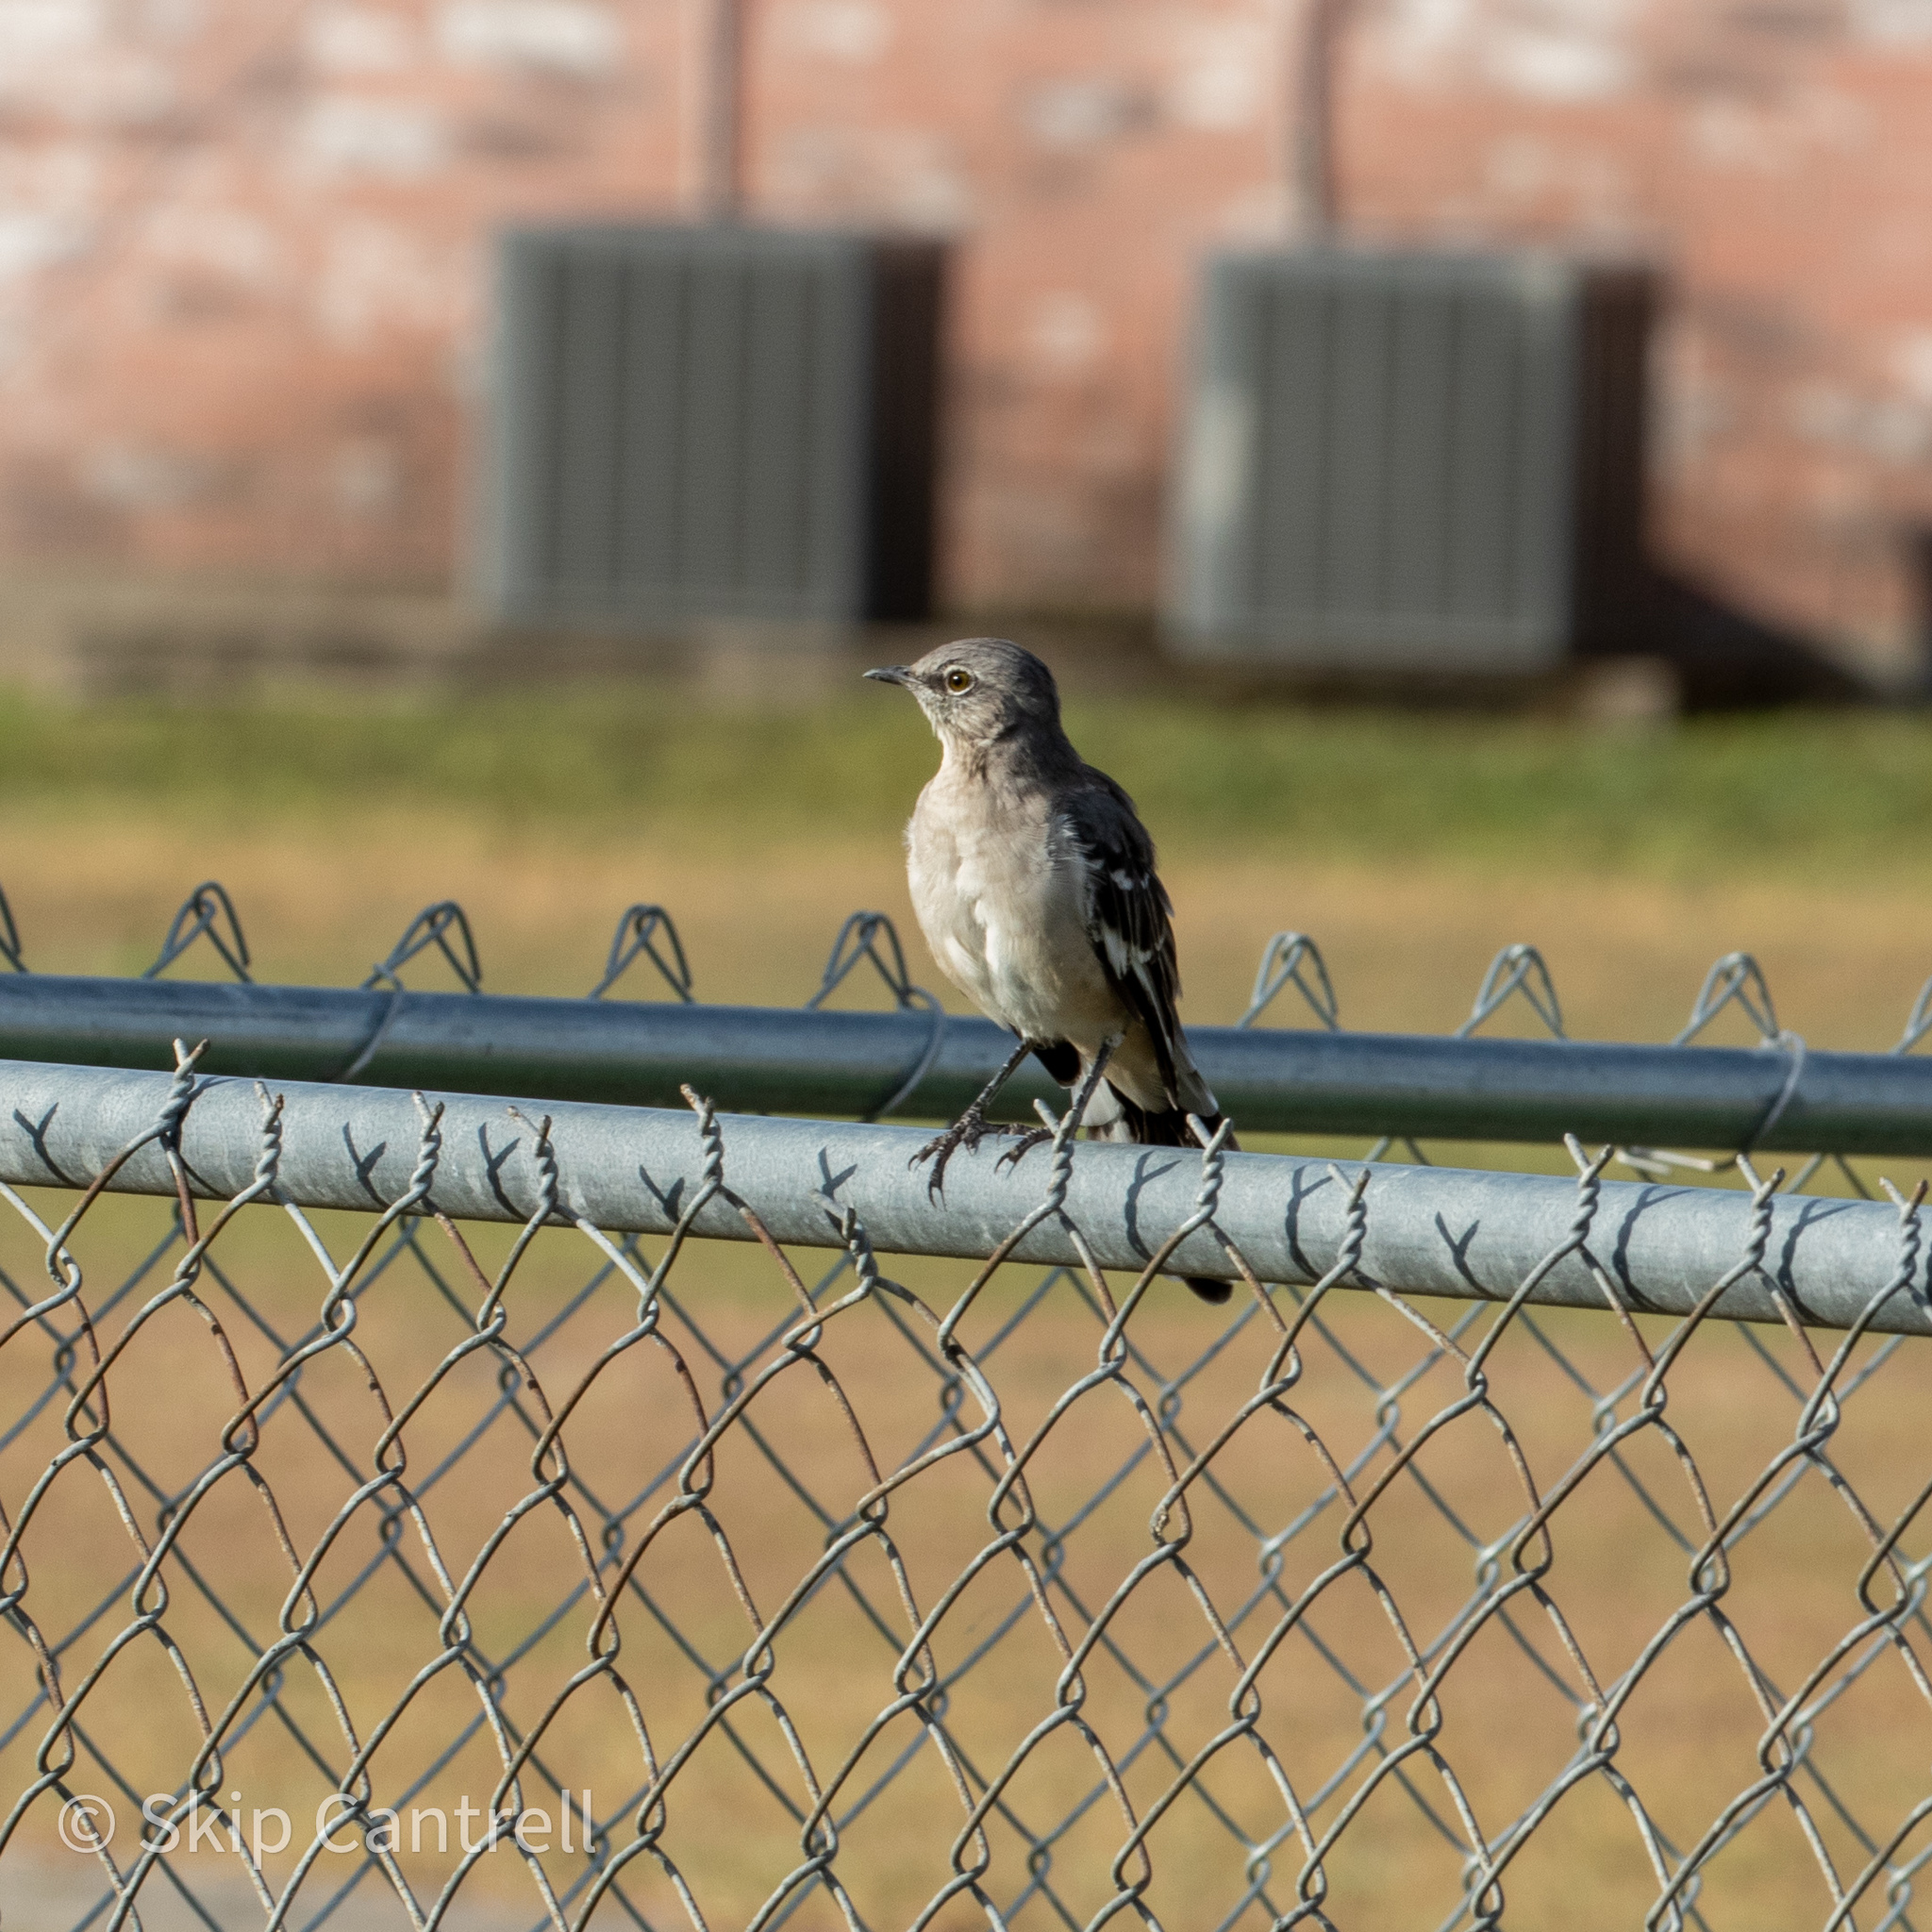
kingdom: Animalia
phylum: Chordata
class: Aves
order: Passeriformes
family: Mimidae
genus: Mimus
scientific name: Mimus polyglottos
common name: Northern mockingbird
